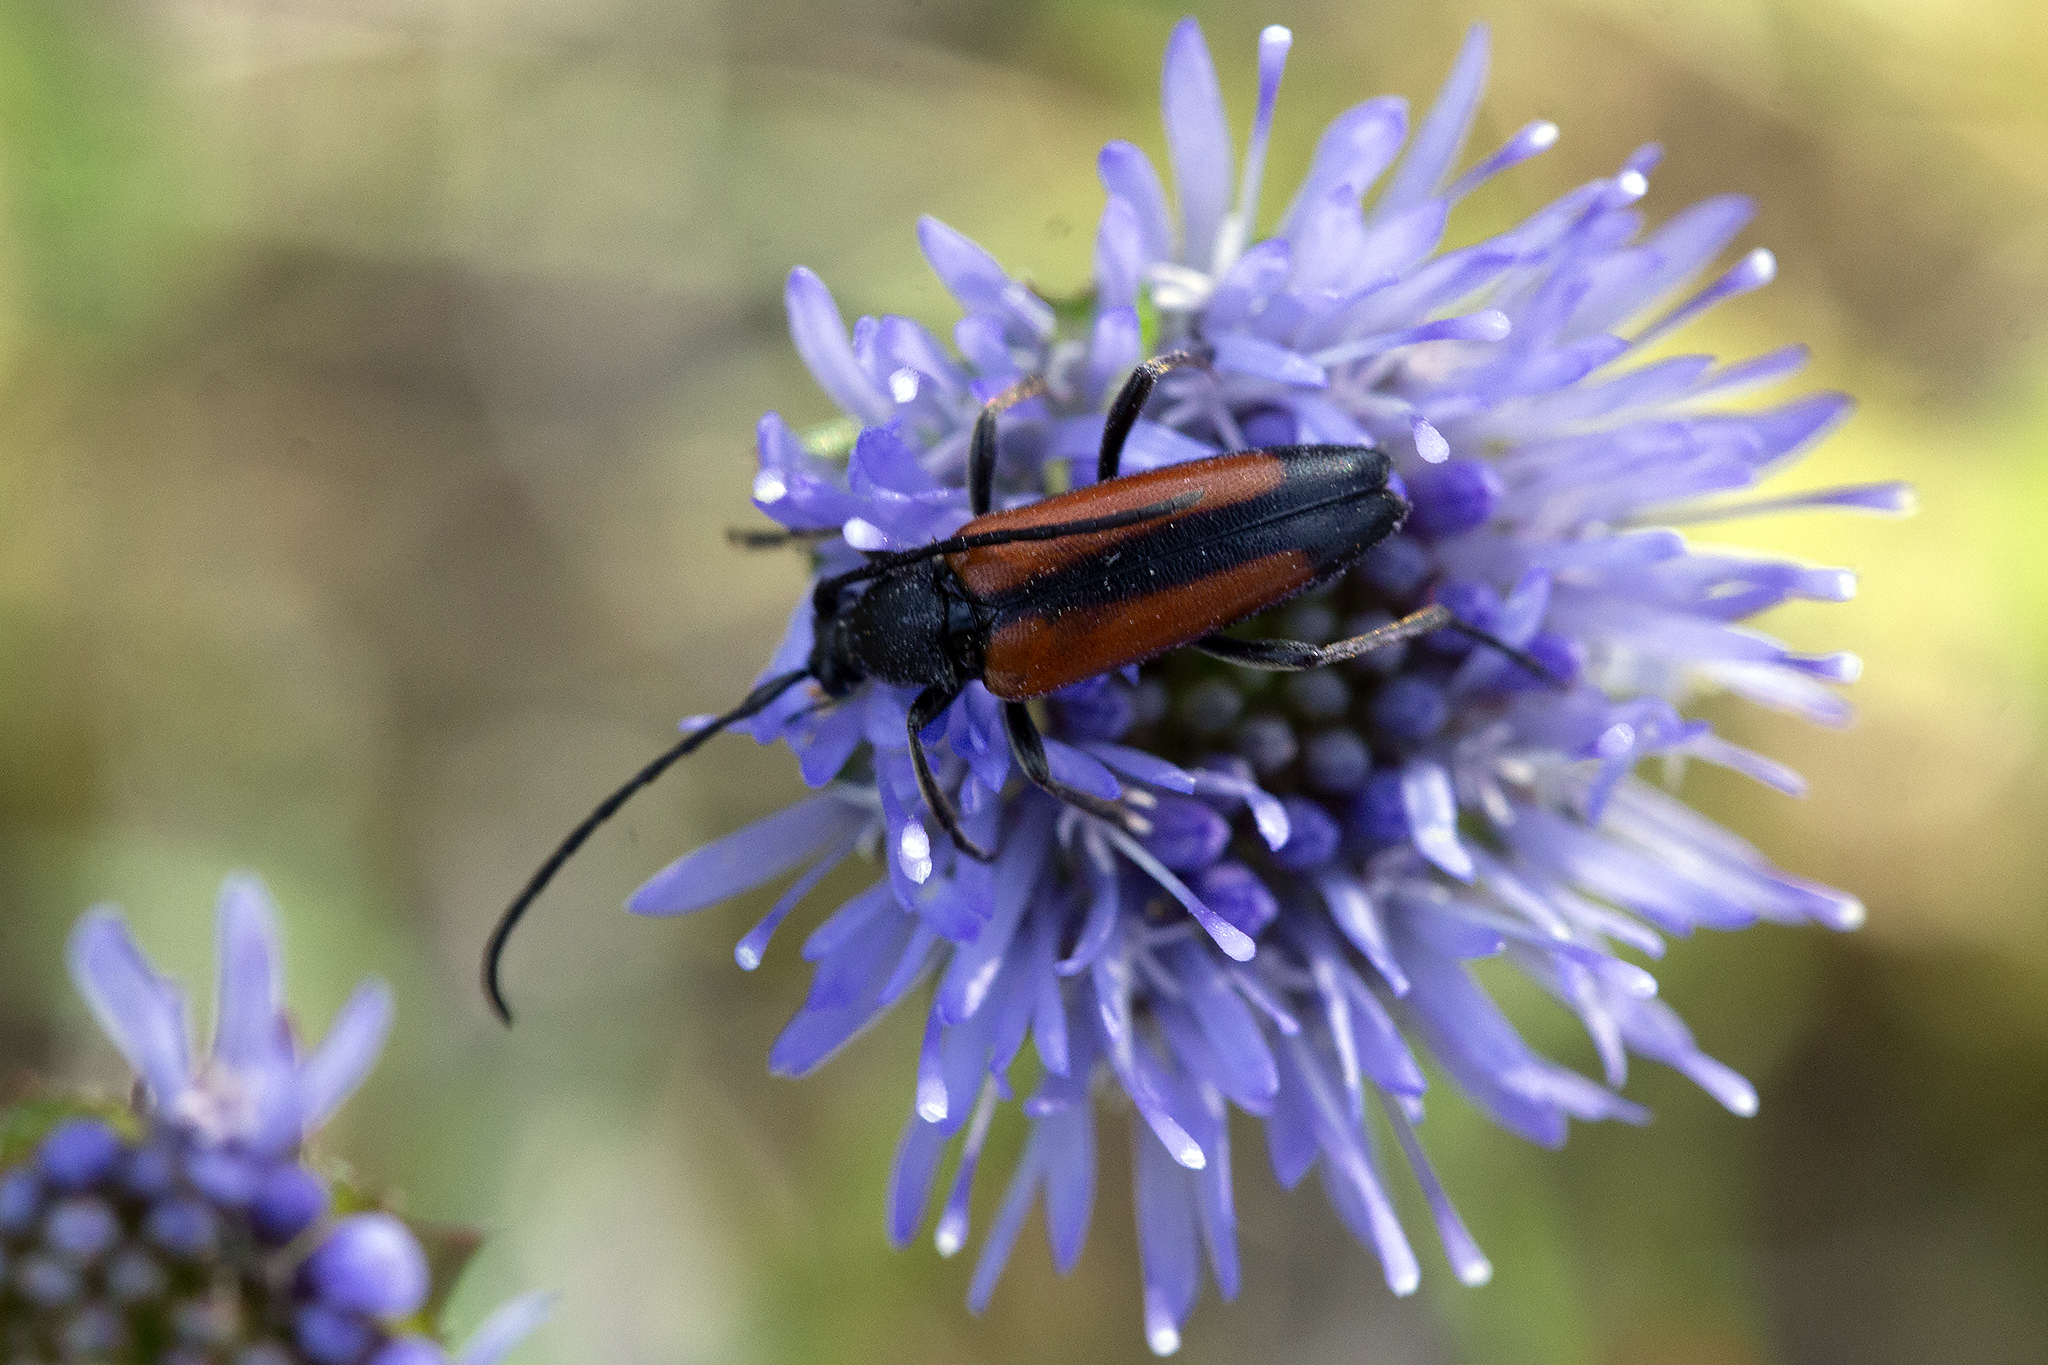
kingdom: Animalia
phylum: Arthropoda
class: Insecta
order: Coleoptera
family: Cerambycidae
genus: Stenurella
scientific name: Stenurella melanura
